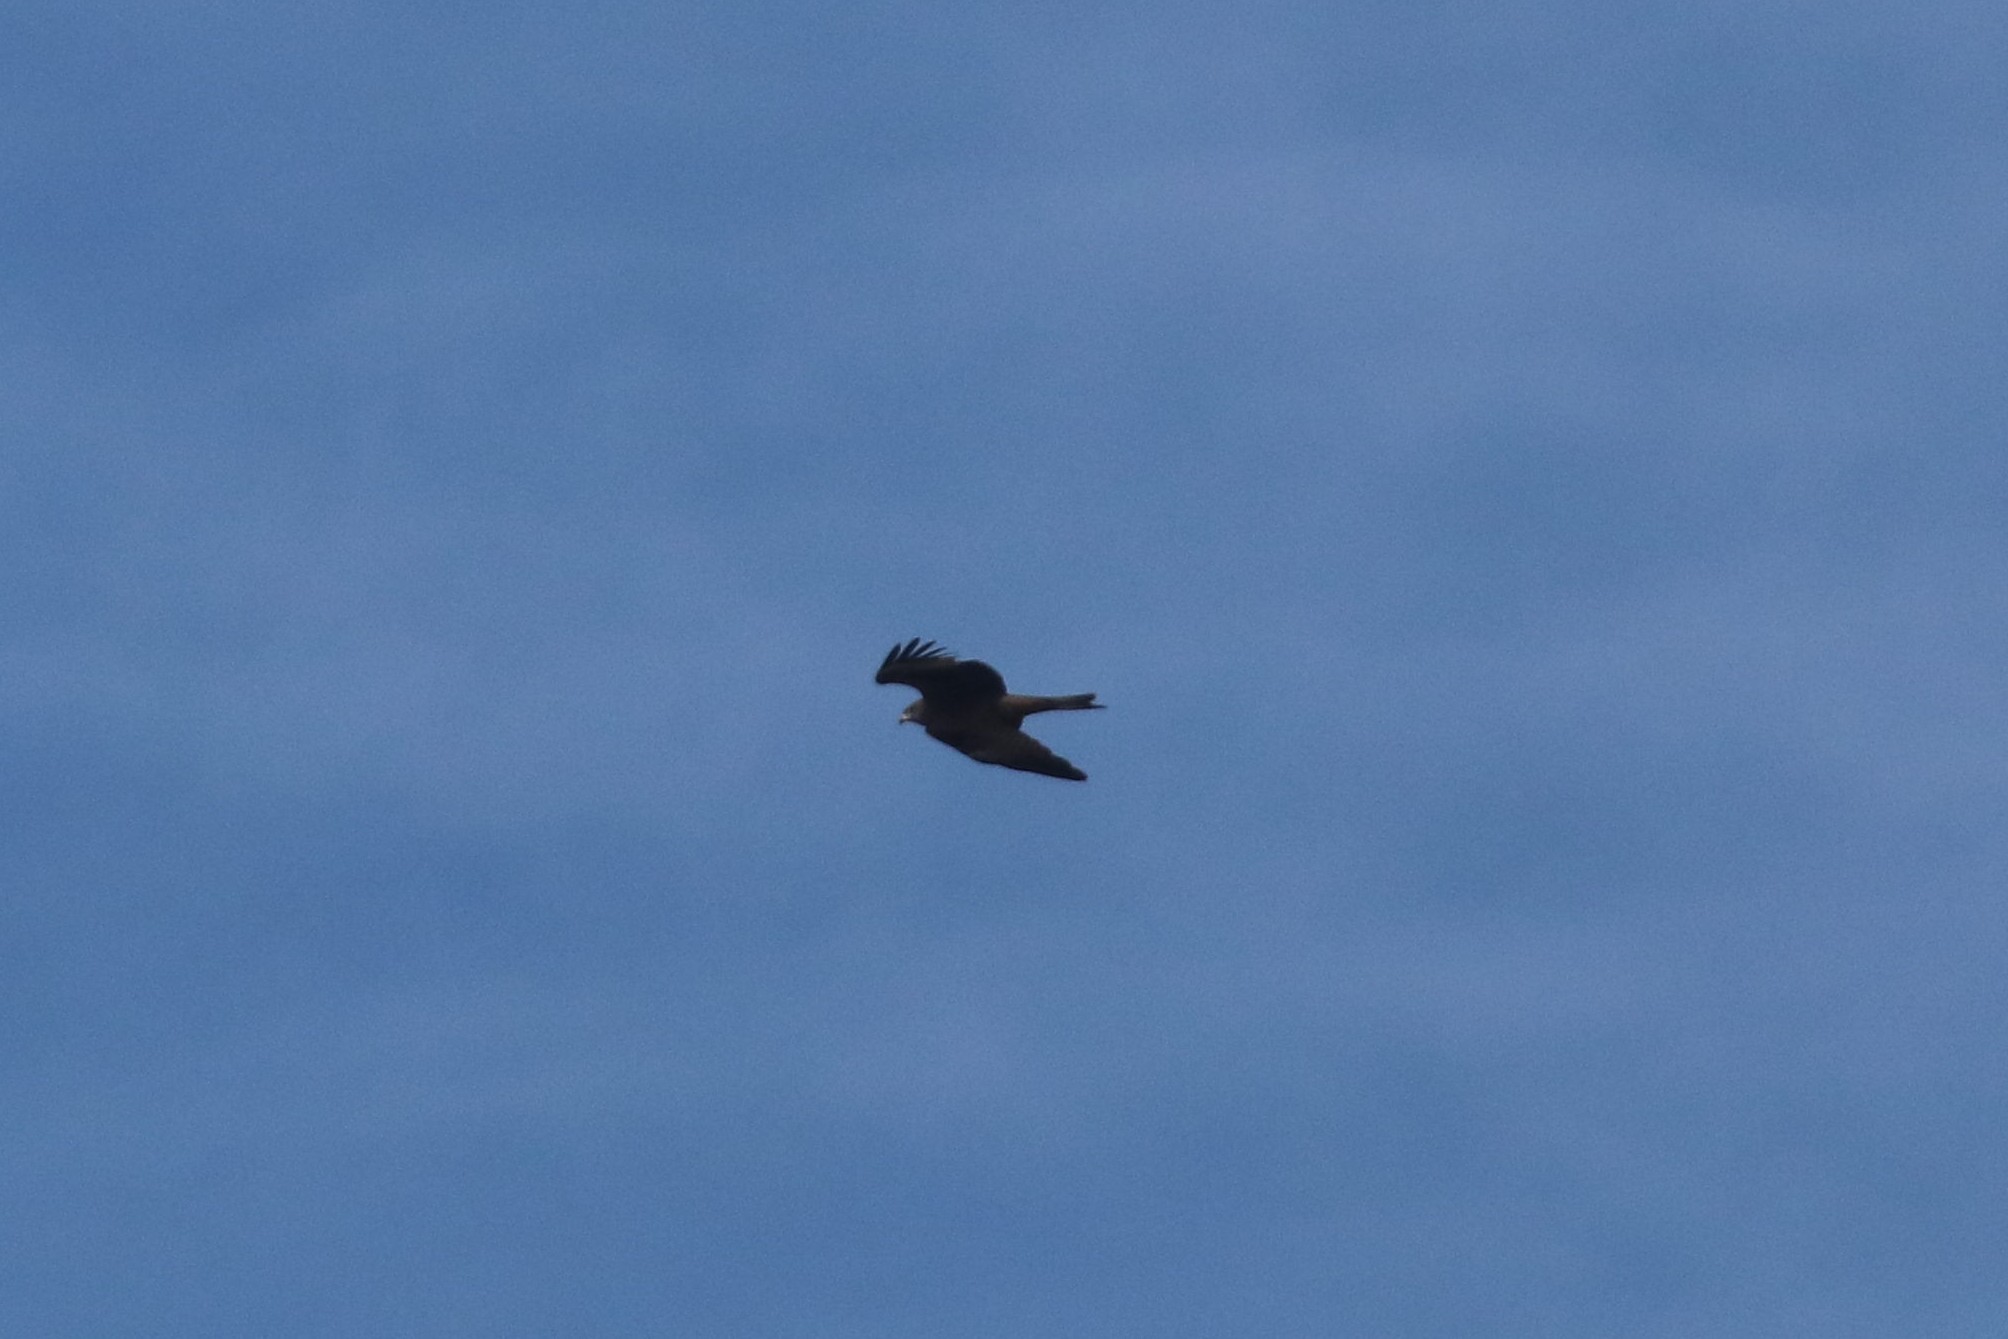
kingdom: Animalia
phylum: Chordata
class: Aves
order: Accipitriformes
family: Accipitridae
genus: Milvus
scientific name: Milvus migrans
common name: Black kite
